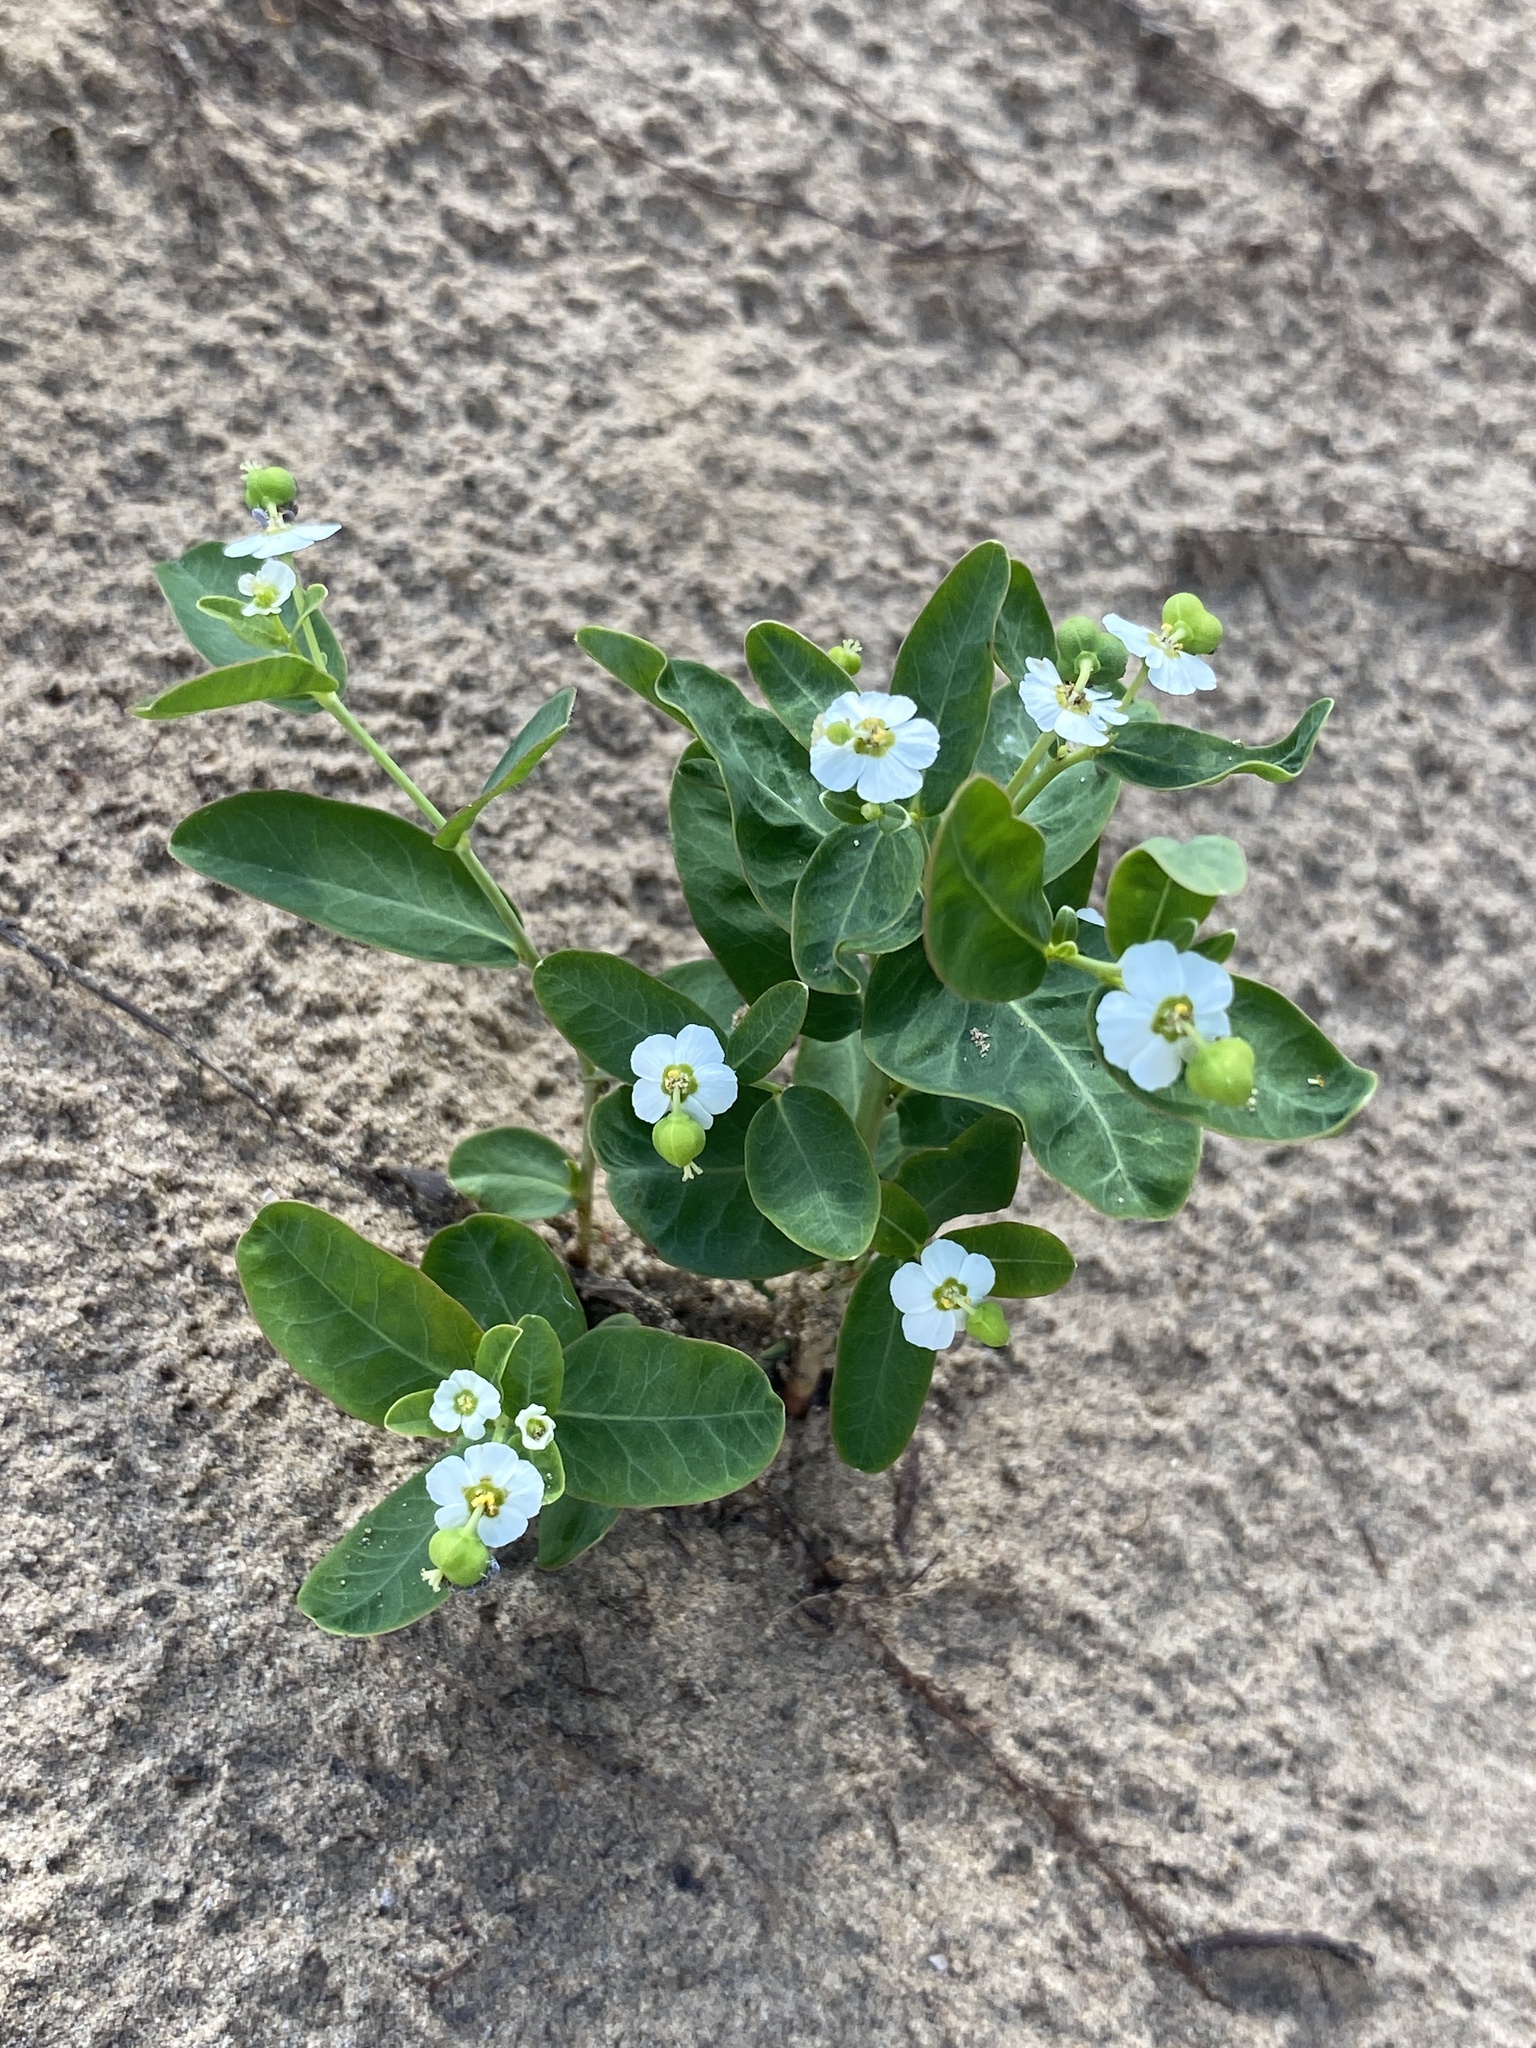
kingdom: Plantae
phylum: Tracheophyta
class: Magnoliopsida
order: Malpighiales
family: Euphorbiaceae
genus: Euphorbia
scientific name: Euphorbia corollata
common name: Flowering spurge
